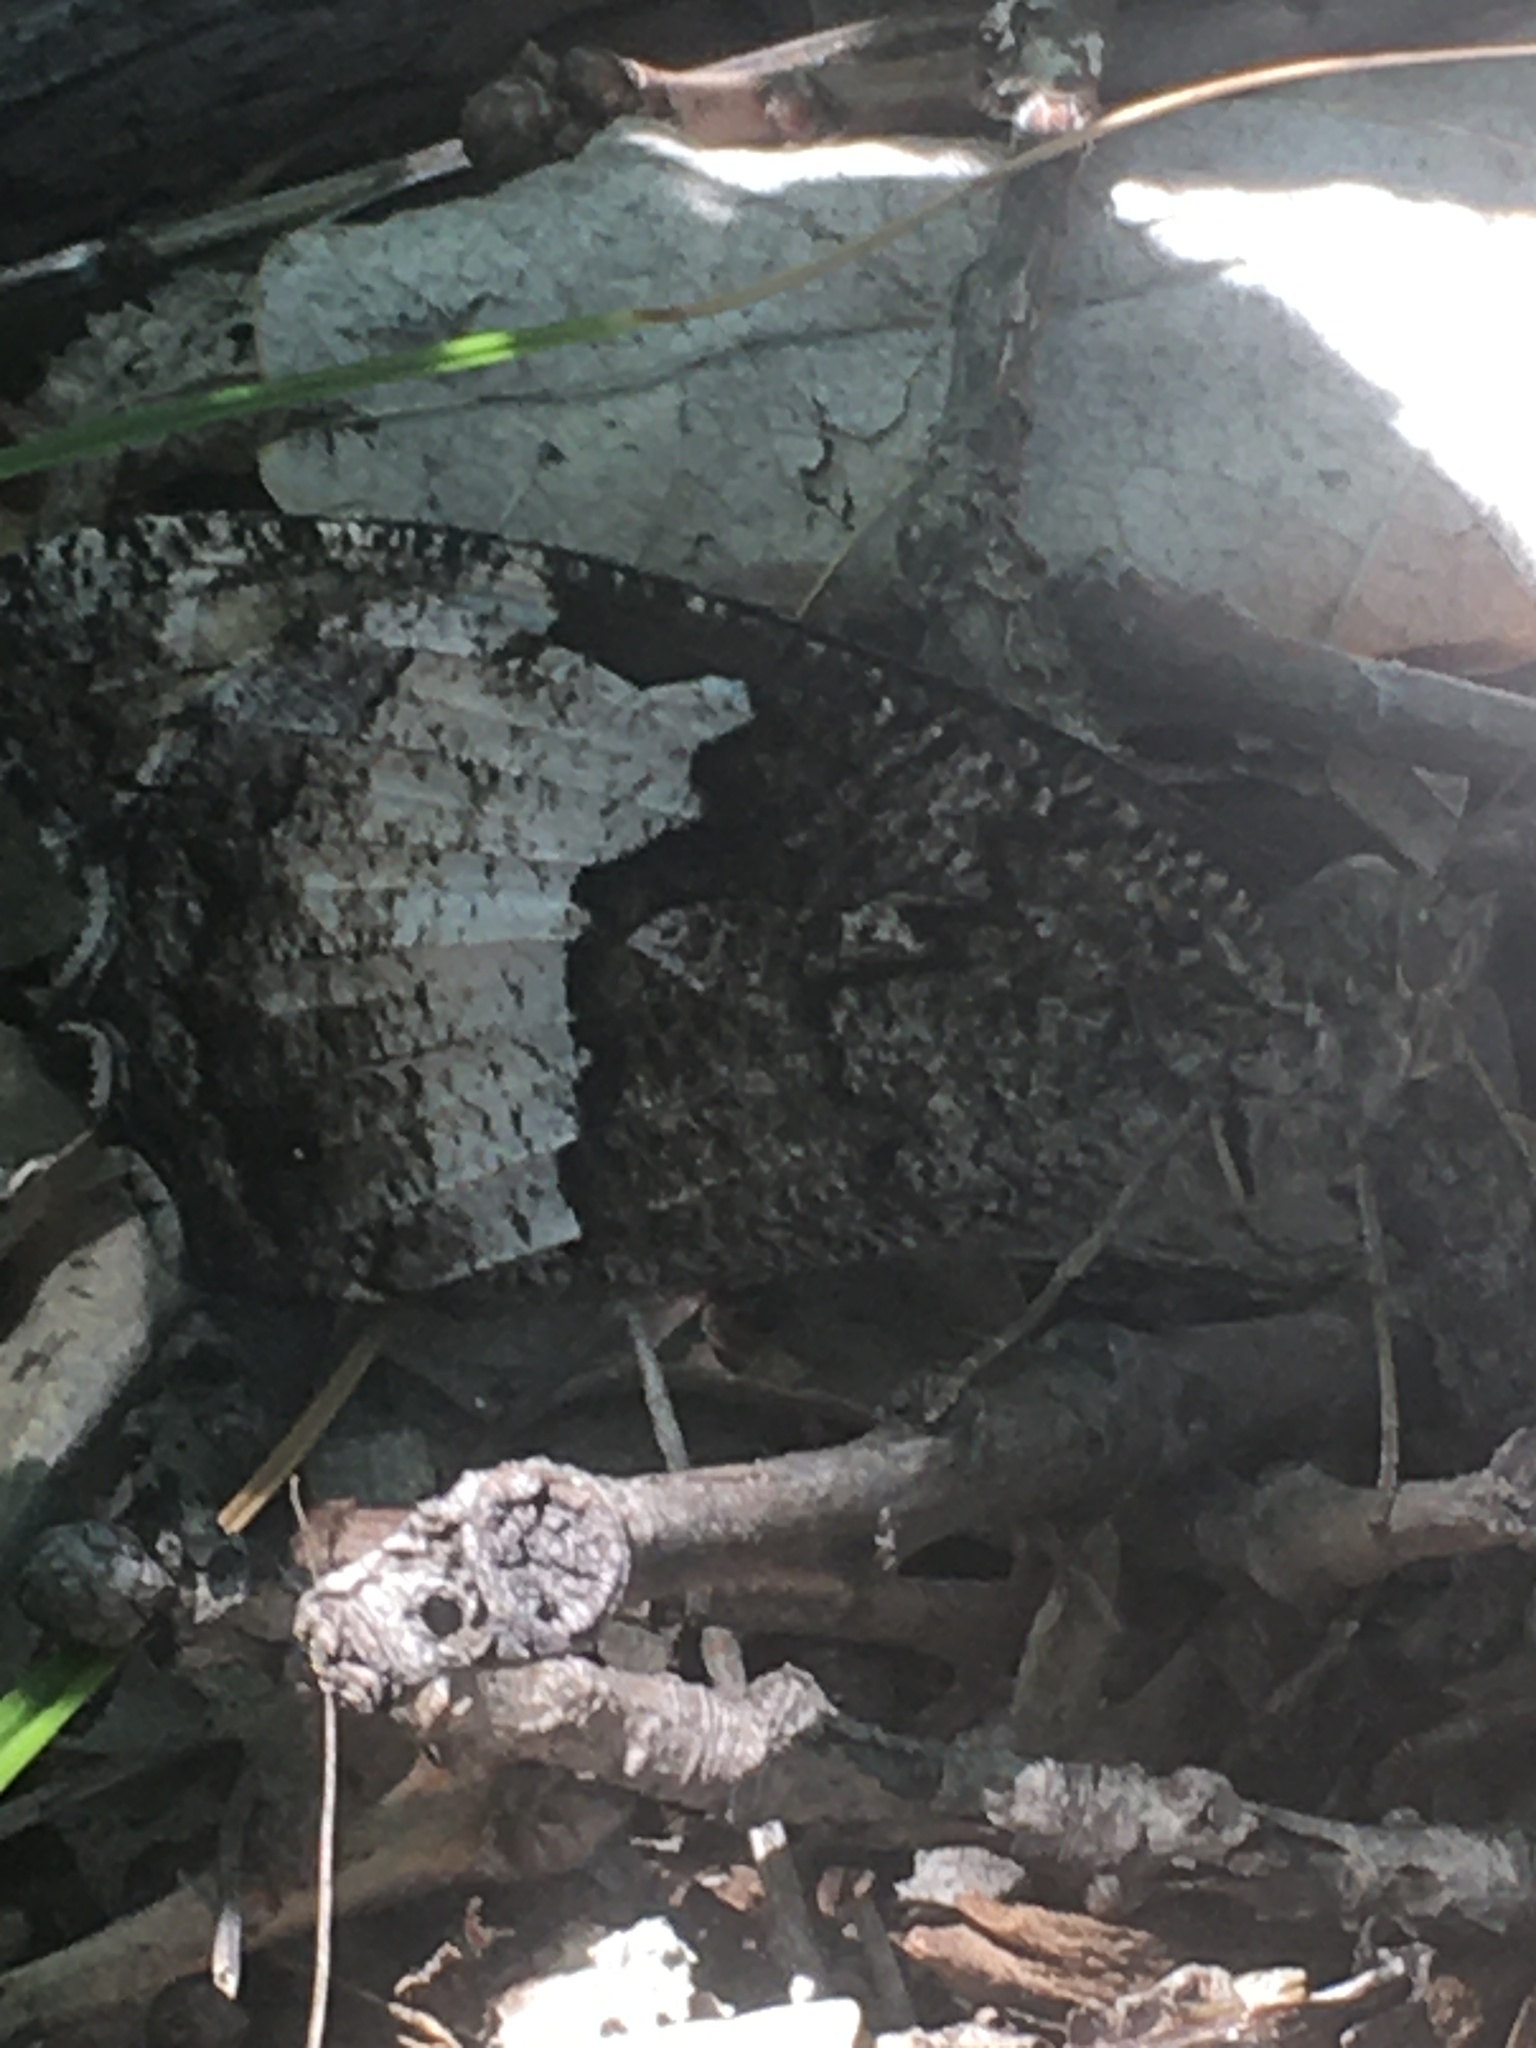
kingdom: Animalia
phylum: Arthropoda
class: Insecta
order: Lepidoptera
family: Nymphalidae
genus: Hipparchia
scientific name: Hipparchia fagi
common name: Woodland grayling
